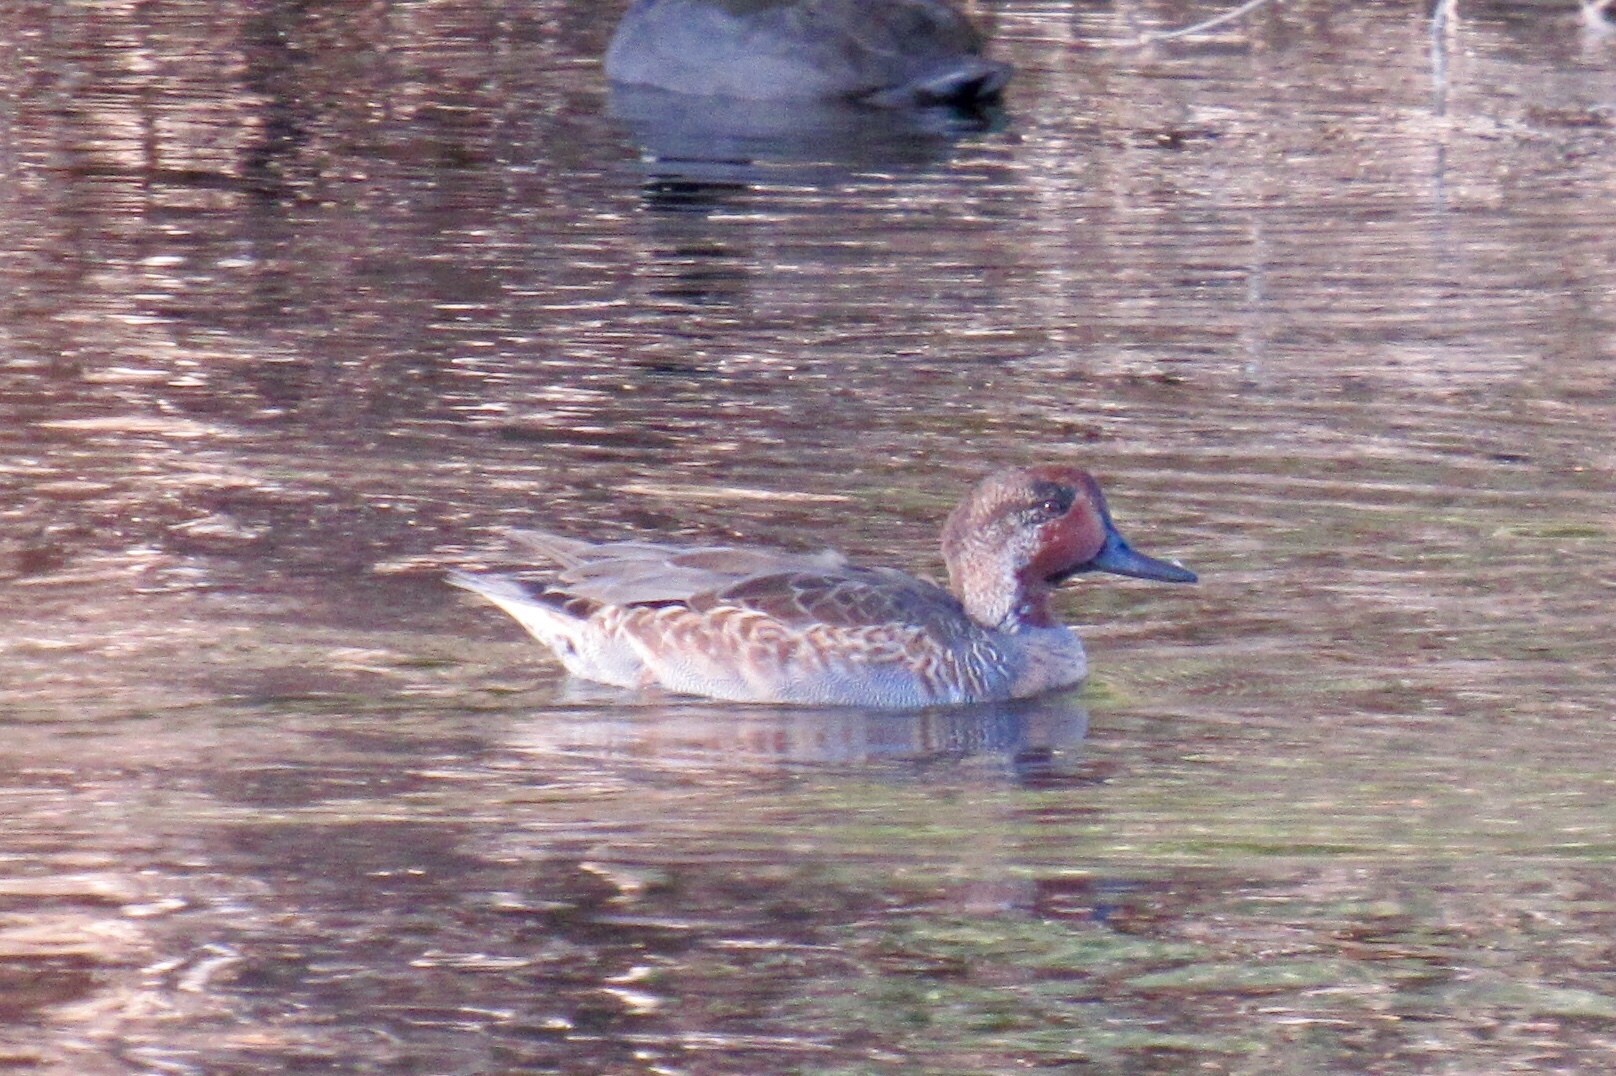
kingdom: Animalia
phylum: Chordata
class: Aves
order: Anseriformes
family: Anatidae
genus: Anas
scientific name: Anas crecca
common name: Eurasian teal
